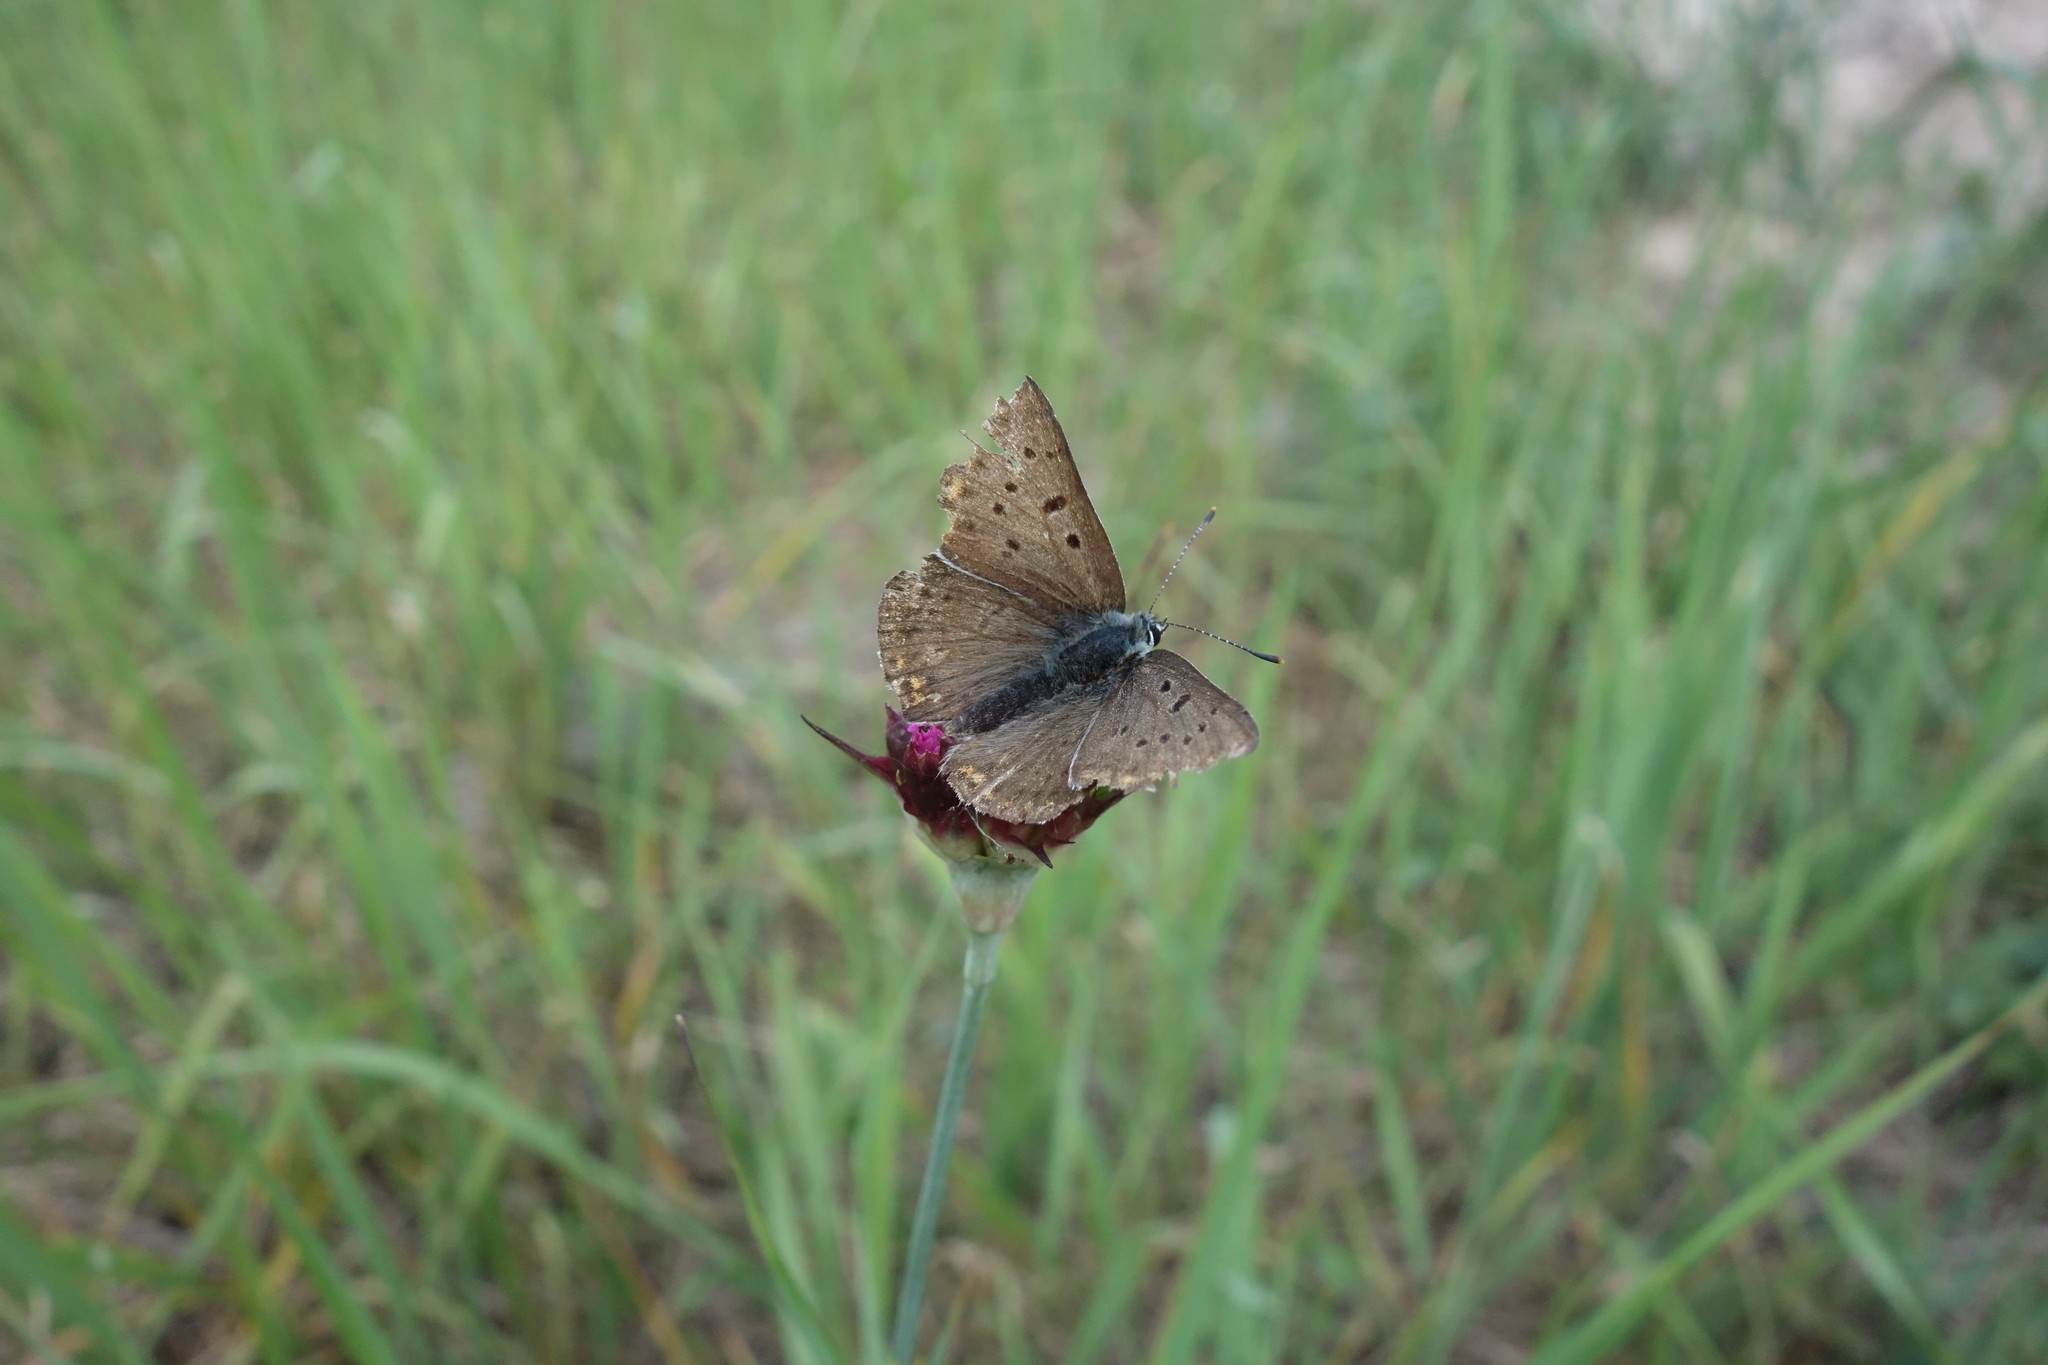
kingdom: Animalia
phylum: Arthropoda
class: Insecta
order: Lepidoptera
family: Lycaenidae
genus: Loweia
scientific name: Loweia tityrus
